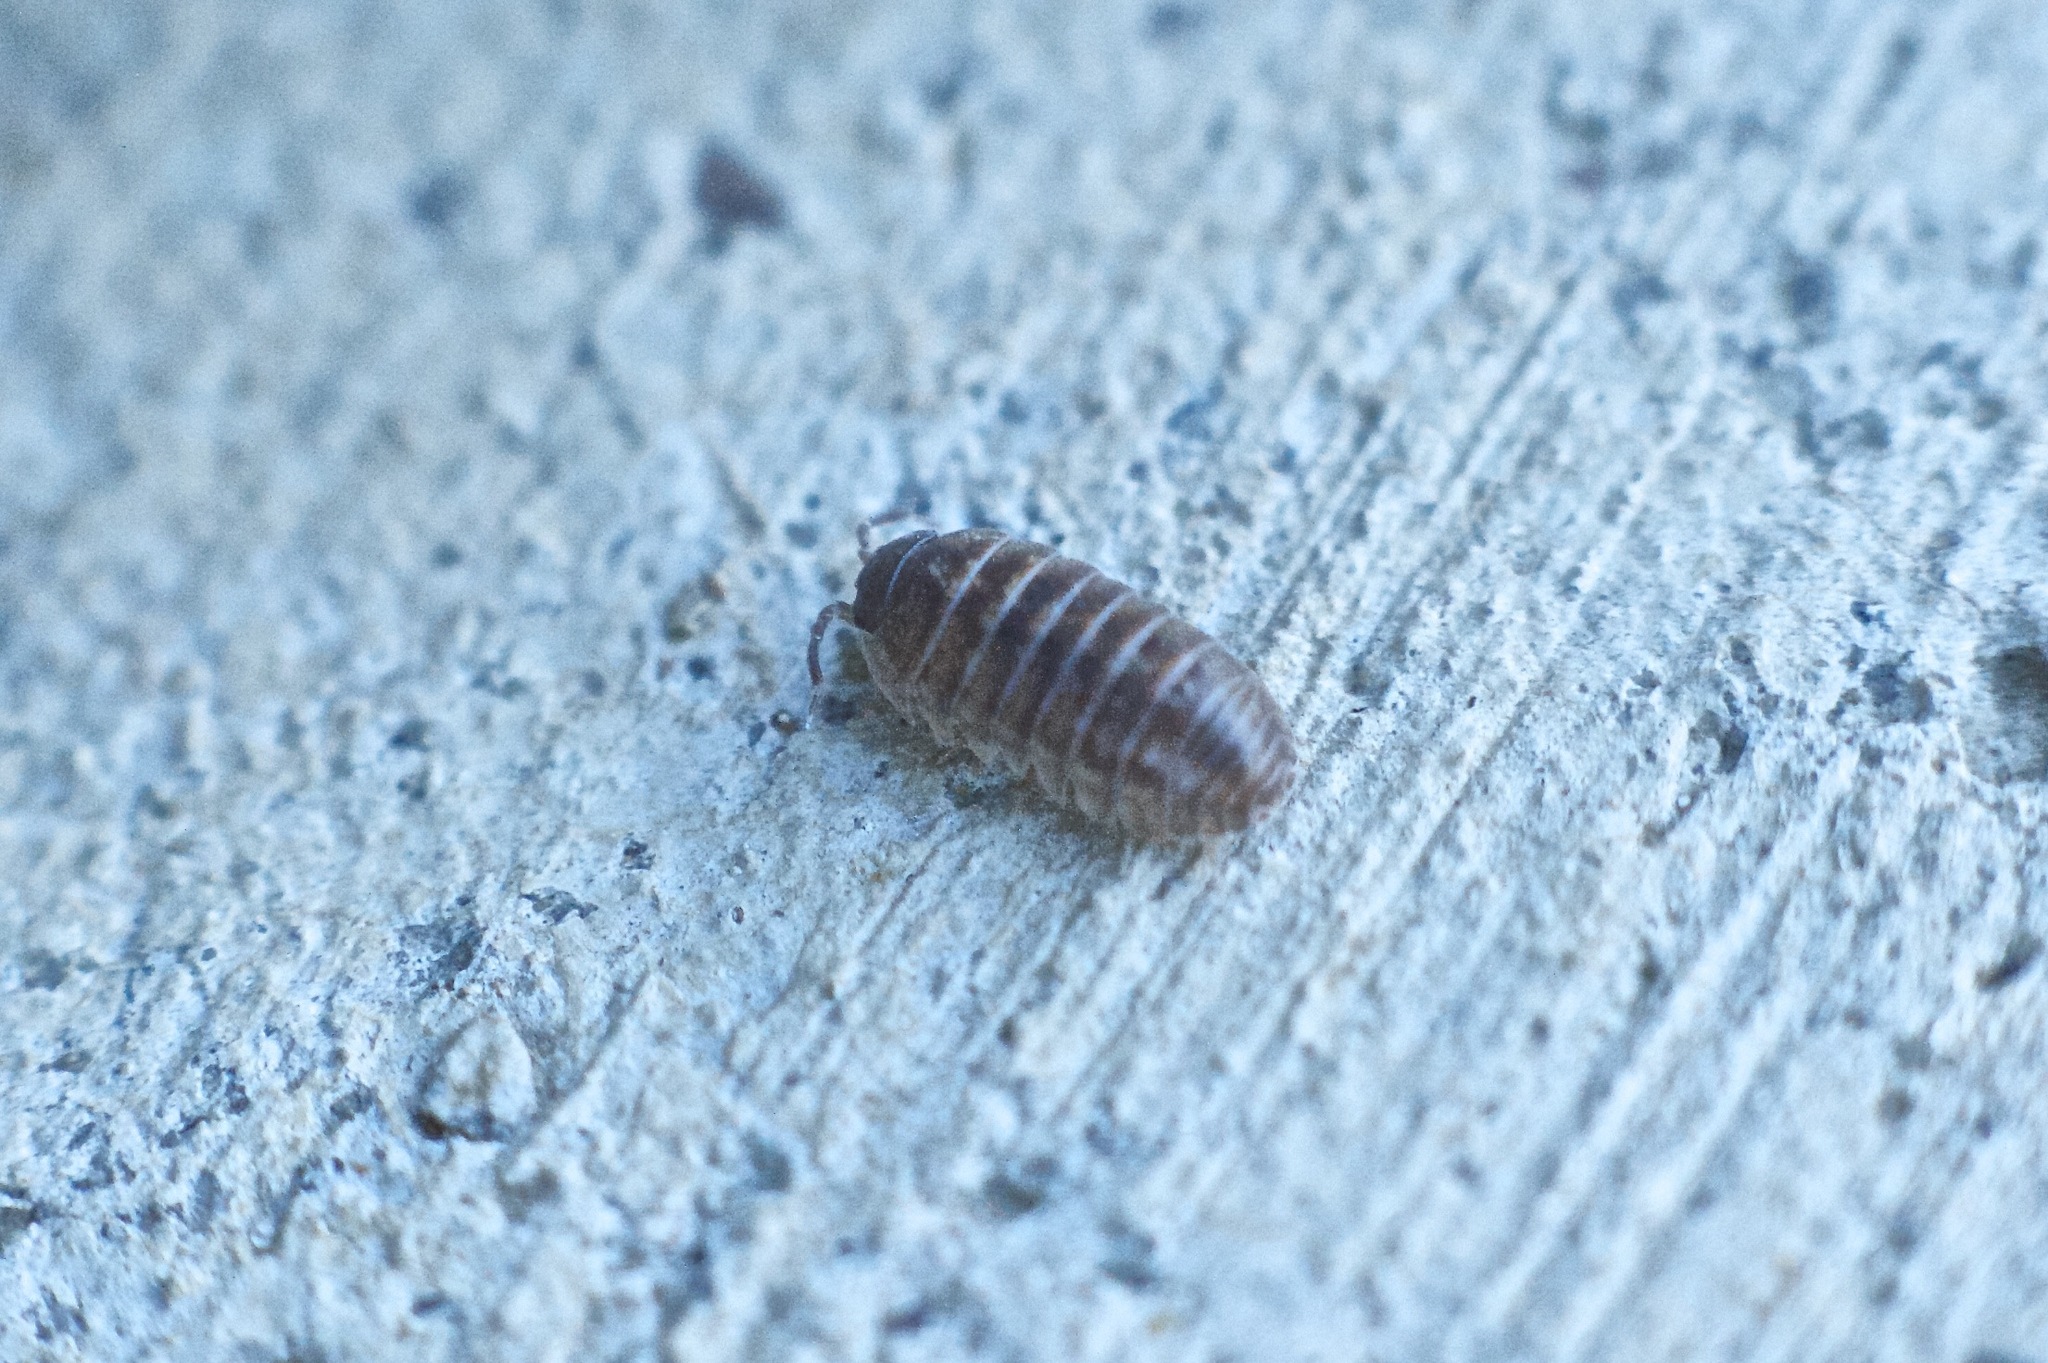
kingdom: Animalia
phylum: Arthropoda
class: Malacostraca
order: Isopoda
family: Armadillidiidae
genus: Armadillidium
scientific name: Armadillidium vulgare
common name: Common pill woodlouse
